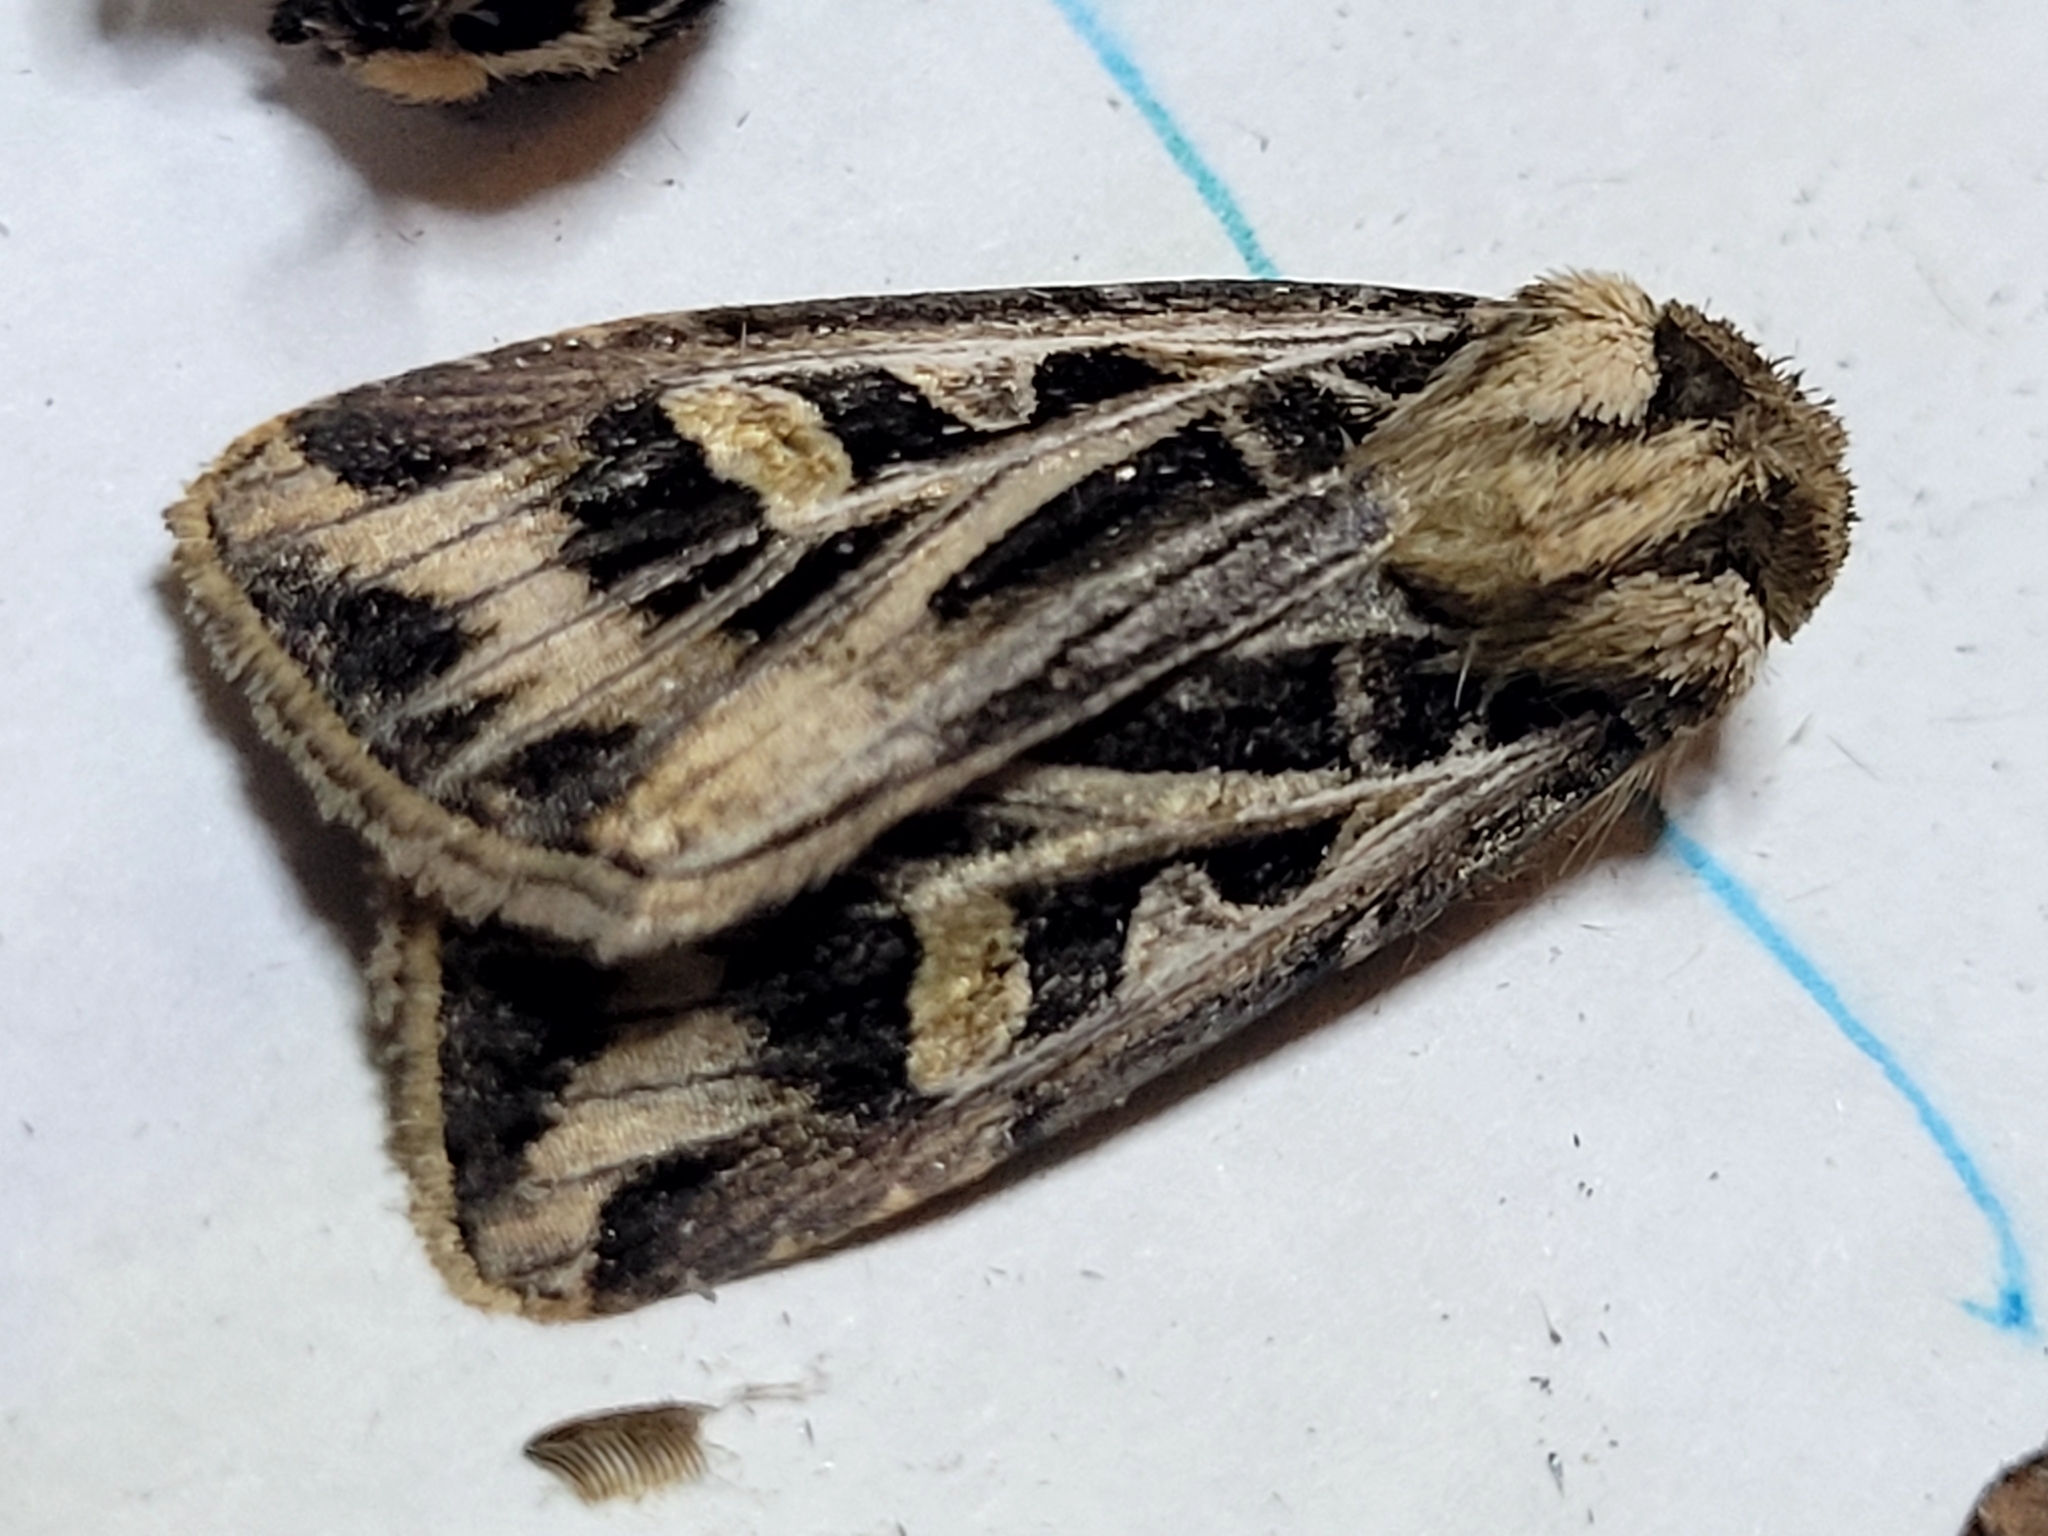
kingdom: Animalia
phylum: Arthropoda
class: Insecta
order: Lepidoptera
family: Noctuidae
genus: Feltia
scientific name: Feltia jaculifera
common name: Dingy cutworm moth
